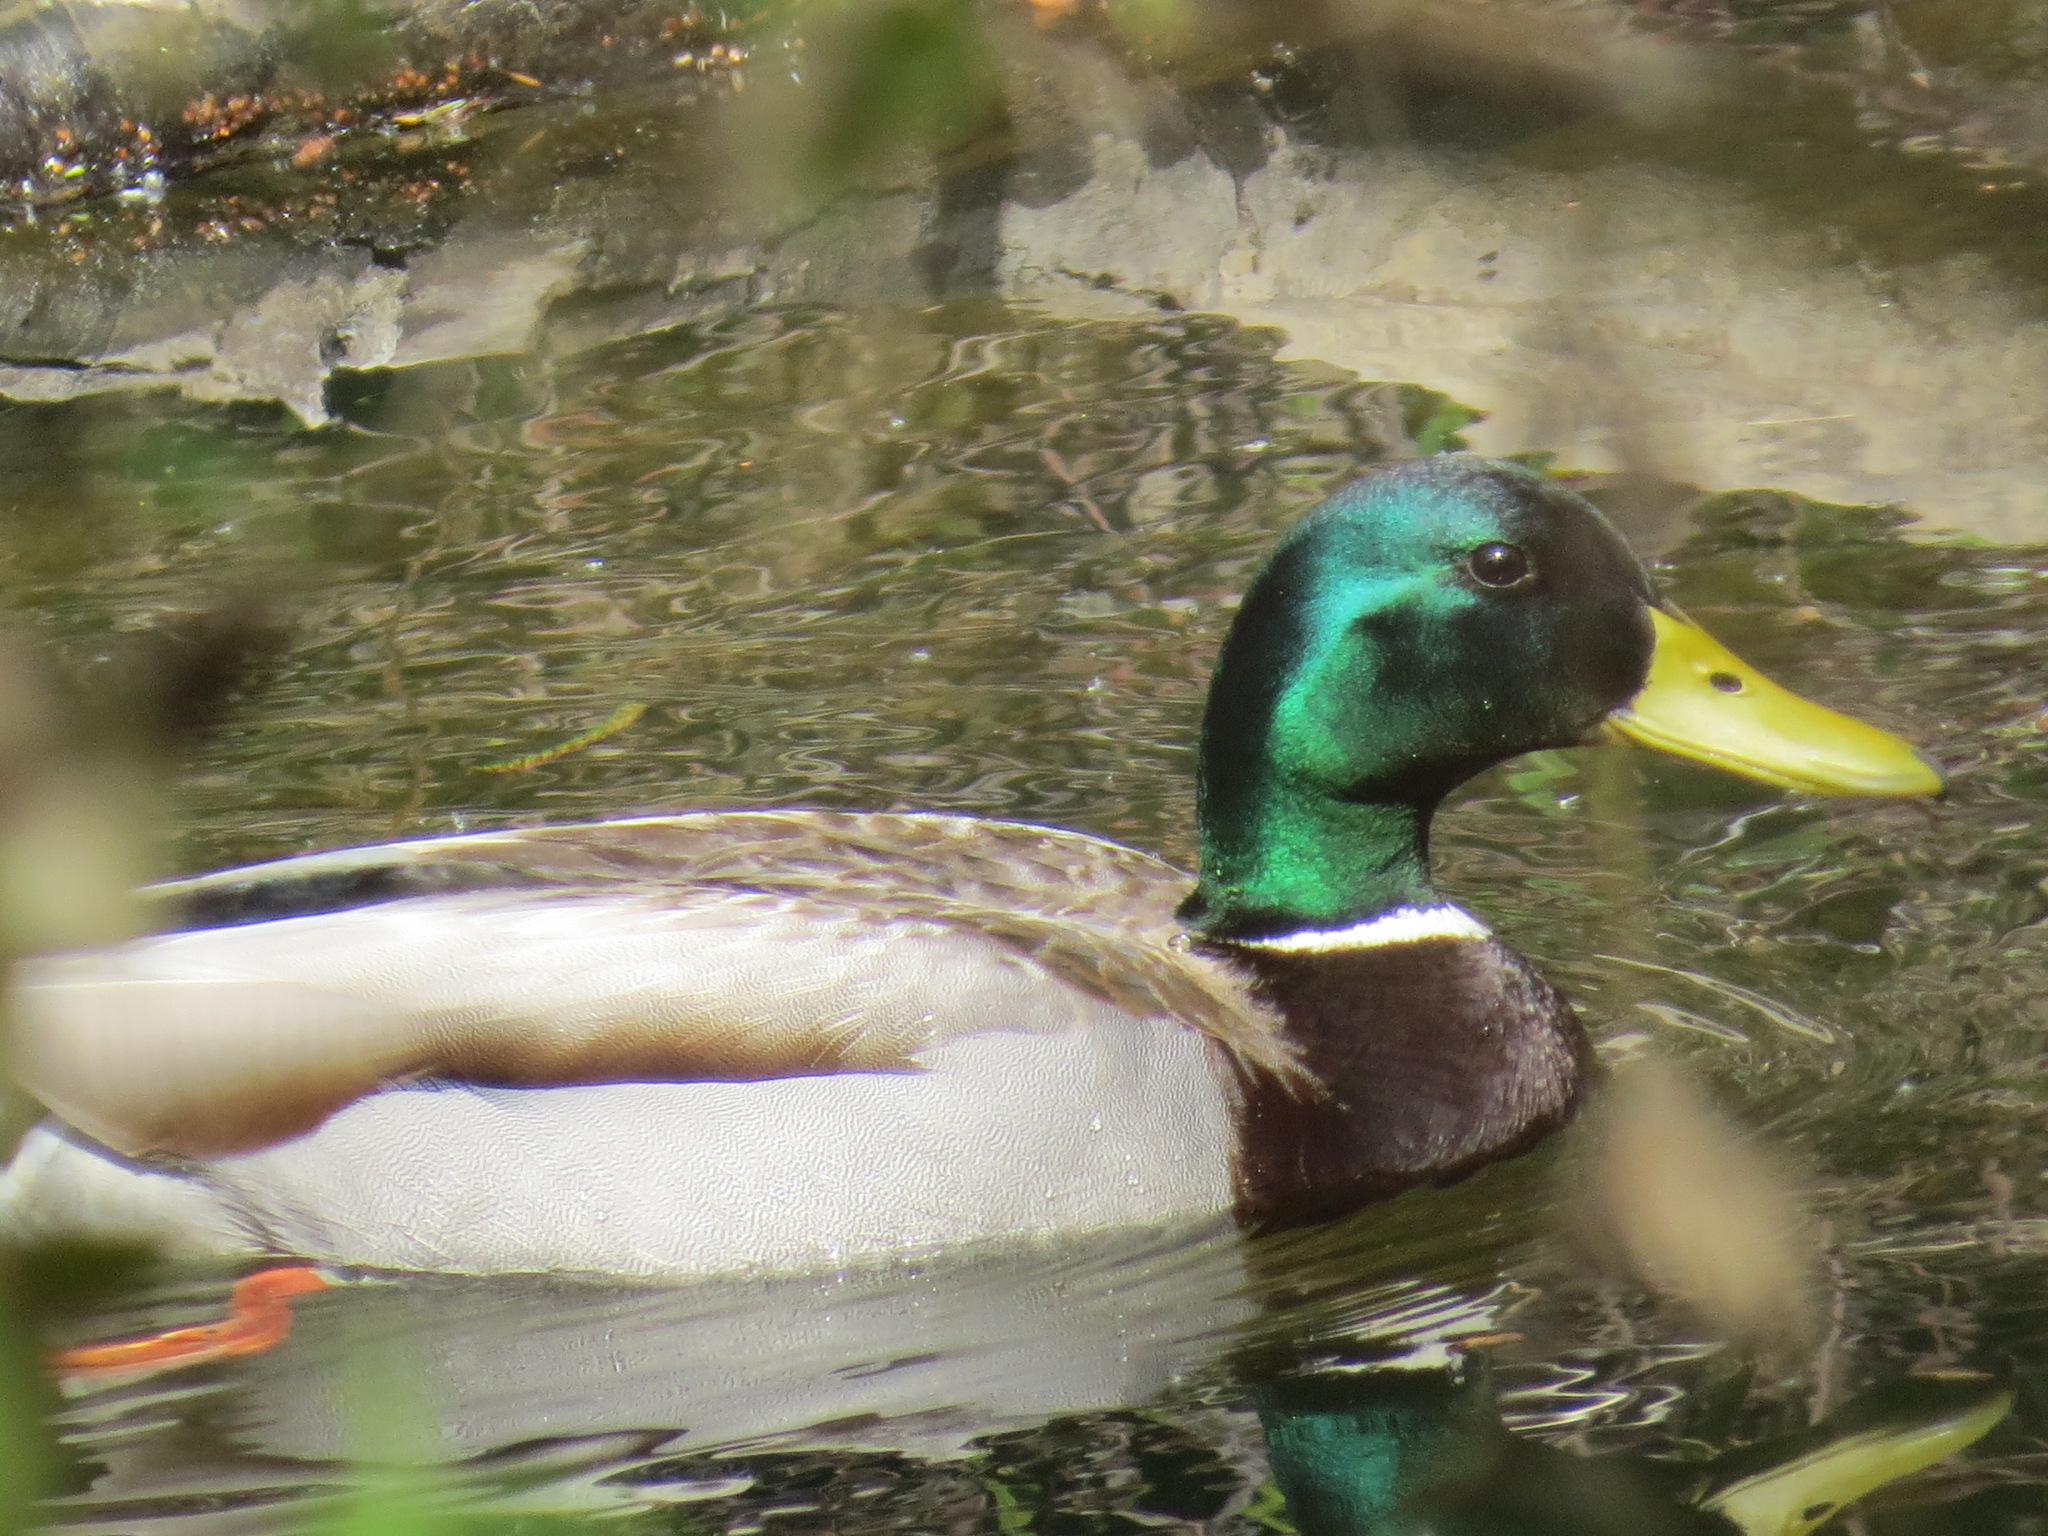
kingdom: Animalia
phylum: Chordata
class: Aves
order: Anseriformes
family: Anatidae
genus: Anas
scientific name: Anas platyrhynchos
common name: Mallard
